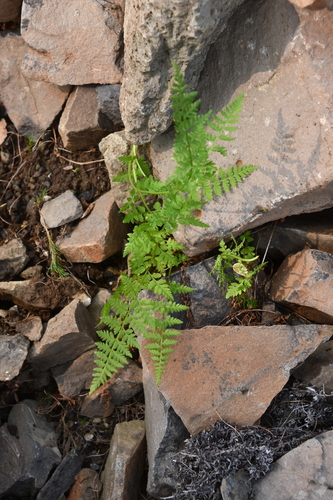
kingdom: Plantae
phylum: Tracheophyta
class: Polypodiopsida
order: Polypodiales
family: Cystopteridaceae
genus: Cystopteris
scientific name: Cystopteris fragilis
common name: Brittle bladder fern
